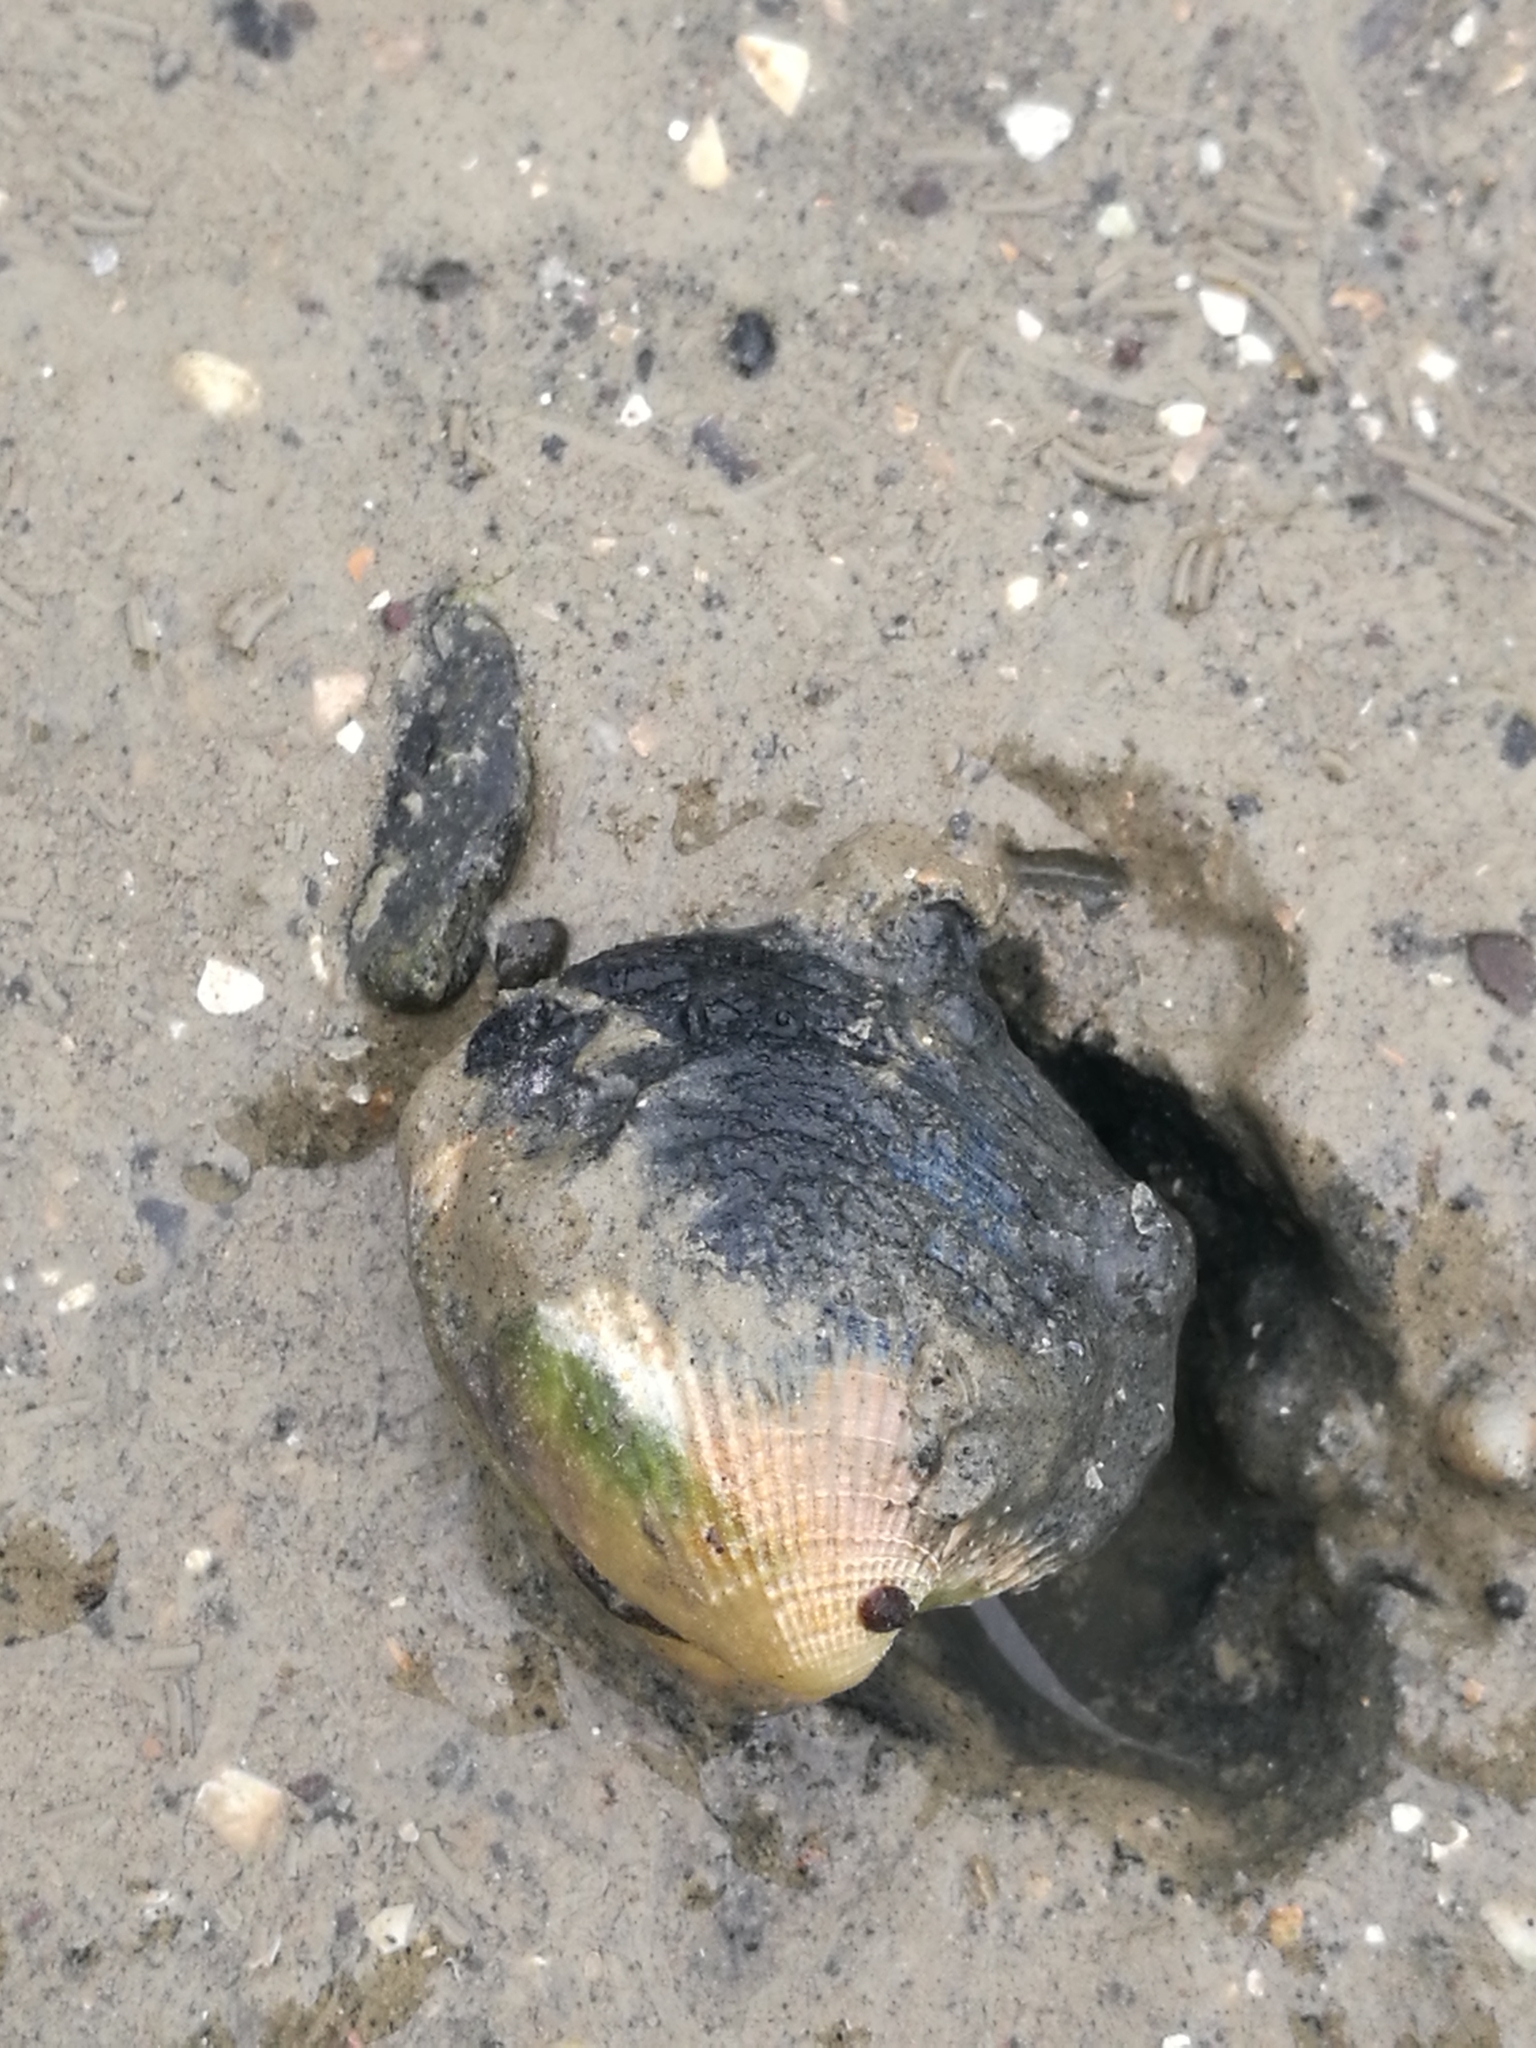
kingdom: Animalia
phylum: Mollusca
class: Bivalvia
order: Venerida
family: Veneridae
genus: Austrovenus
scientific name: Austrovenus stutchburyi
